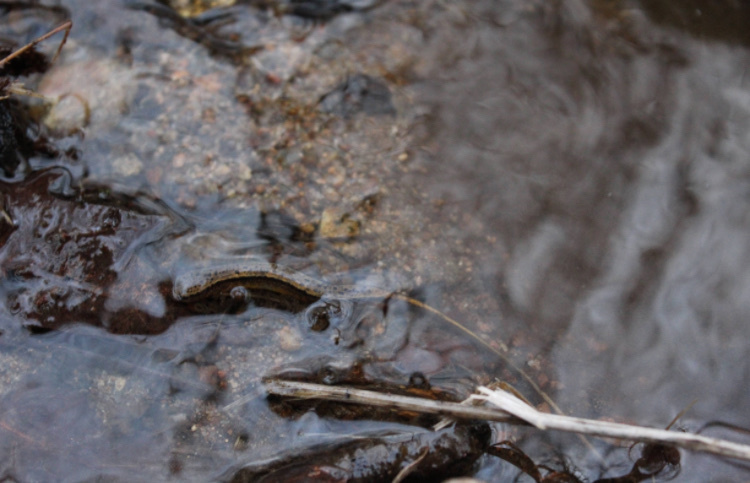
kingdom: Animalia
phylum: Chordata
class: Amphibia
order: Caudata
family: Plethodontidae
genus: Eurycea
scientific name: Eurycea cirrigera
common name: Southern two-lined salamander
